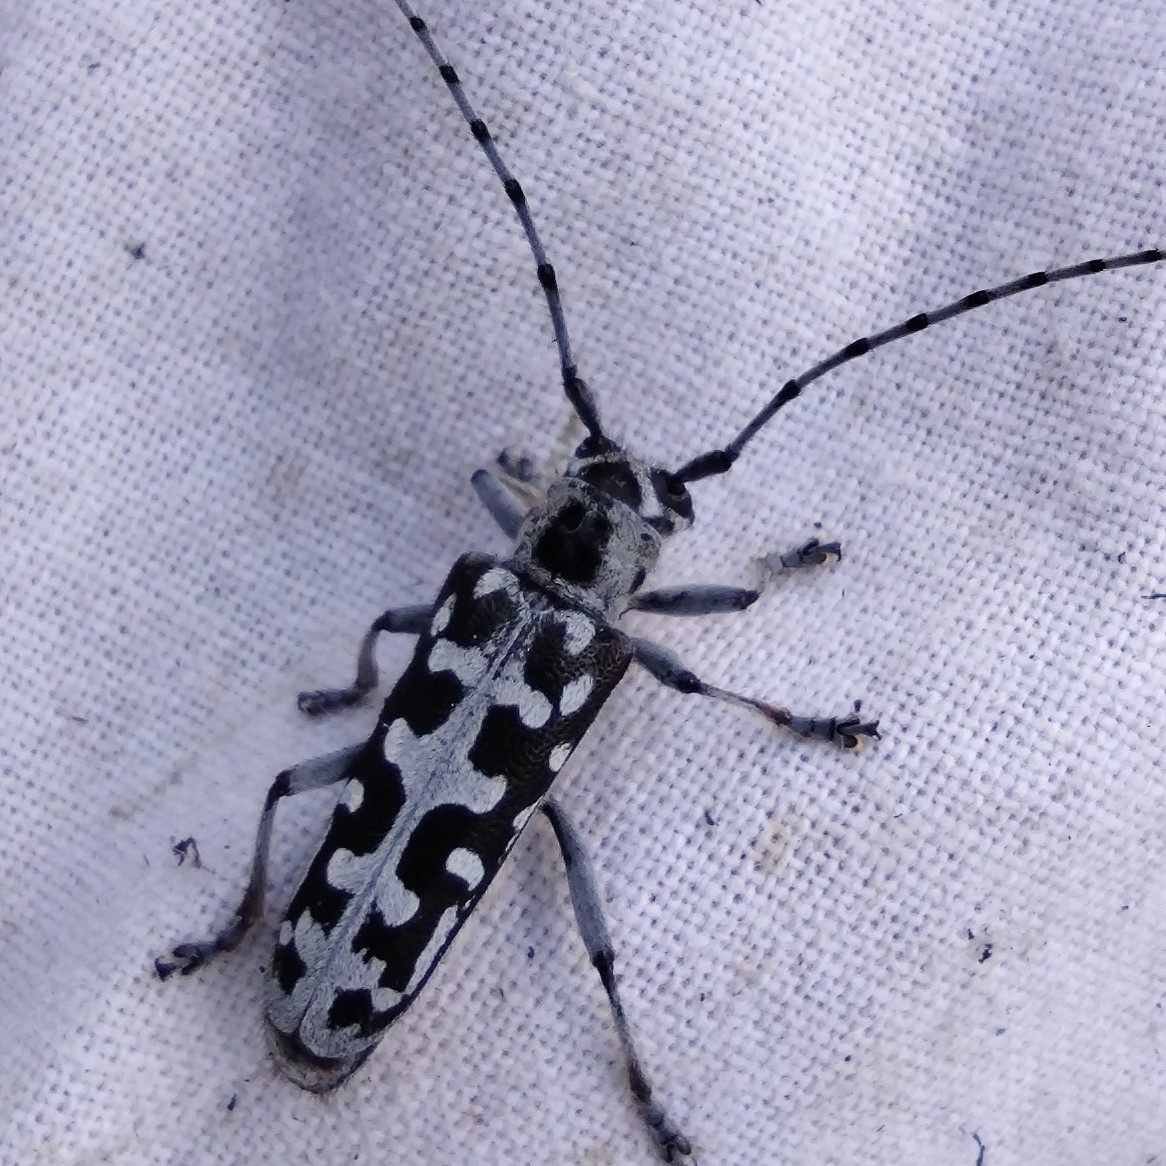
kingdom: Animalia
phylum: Arthropoda
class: Insecta
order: Coleoptera
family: Cerambycidae
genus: Saperda
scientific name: Saperda scalaris
